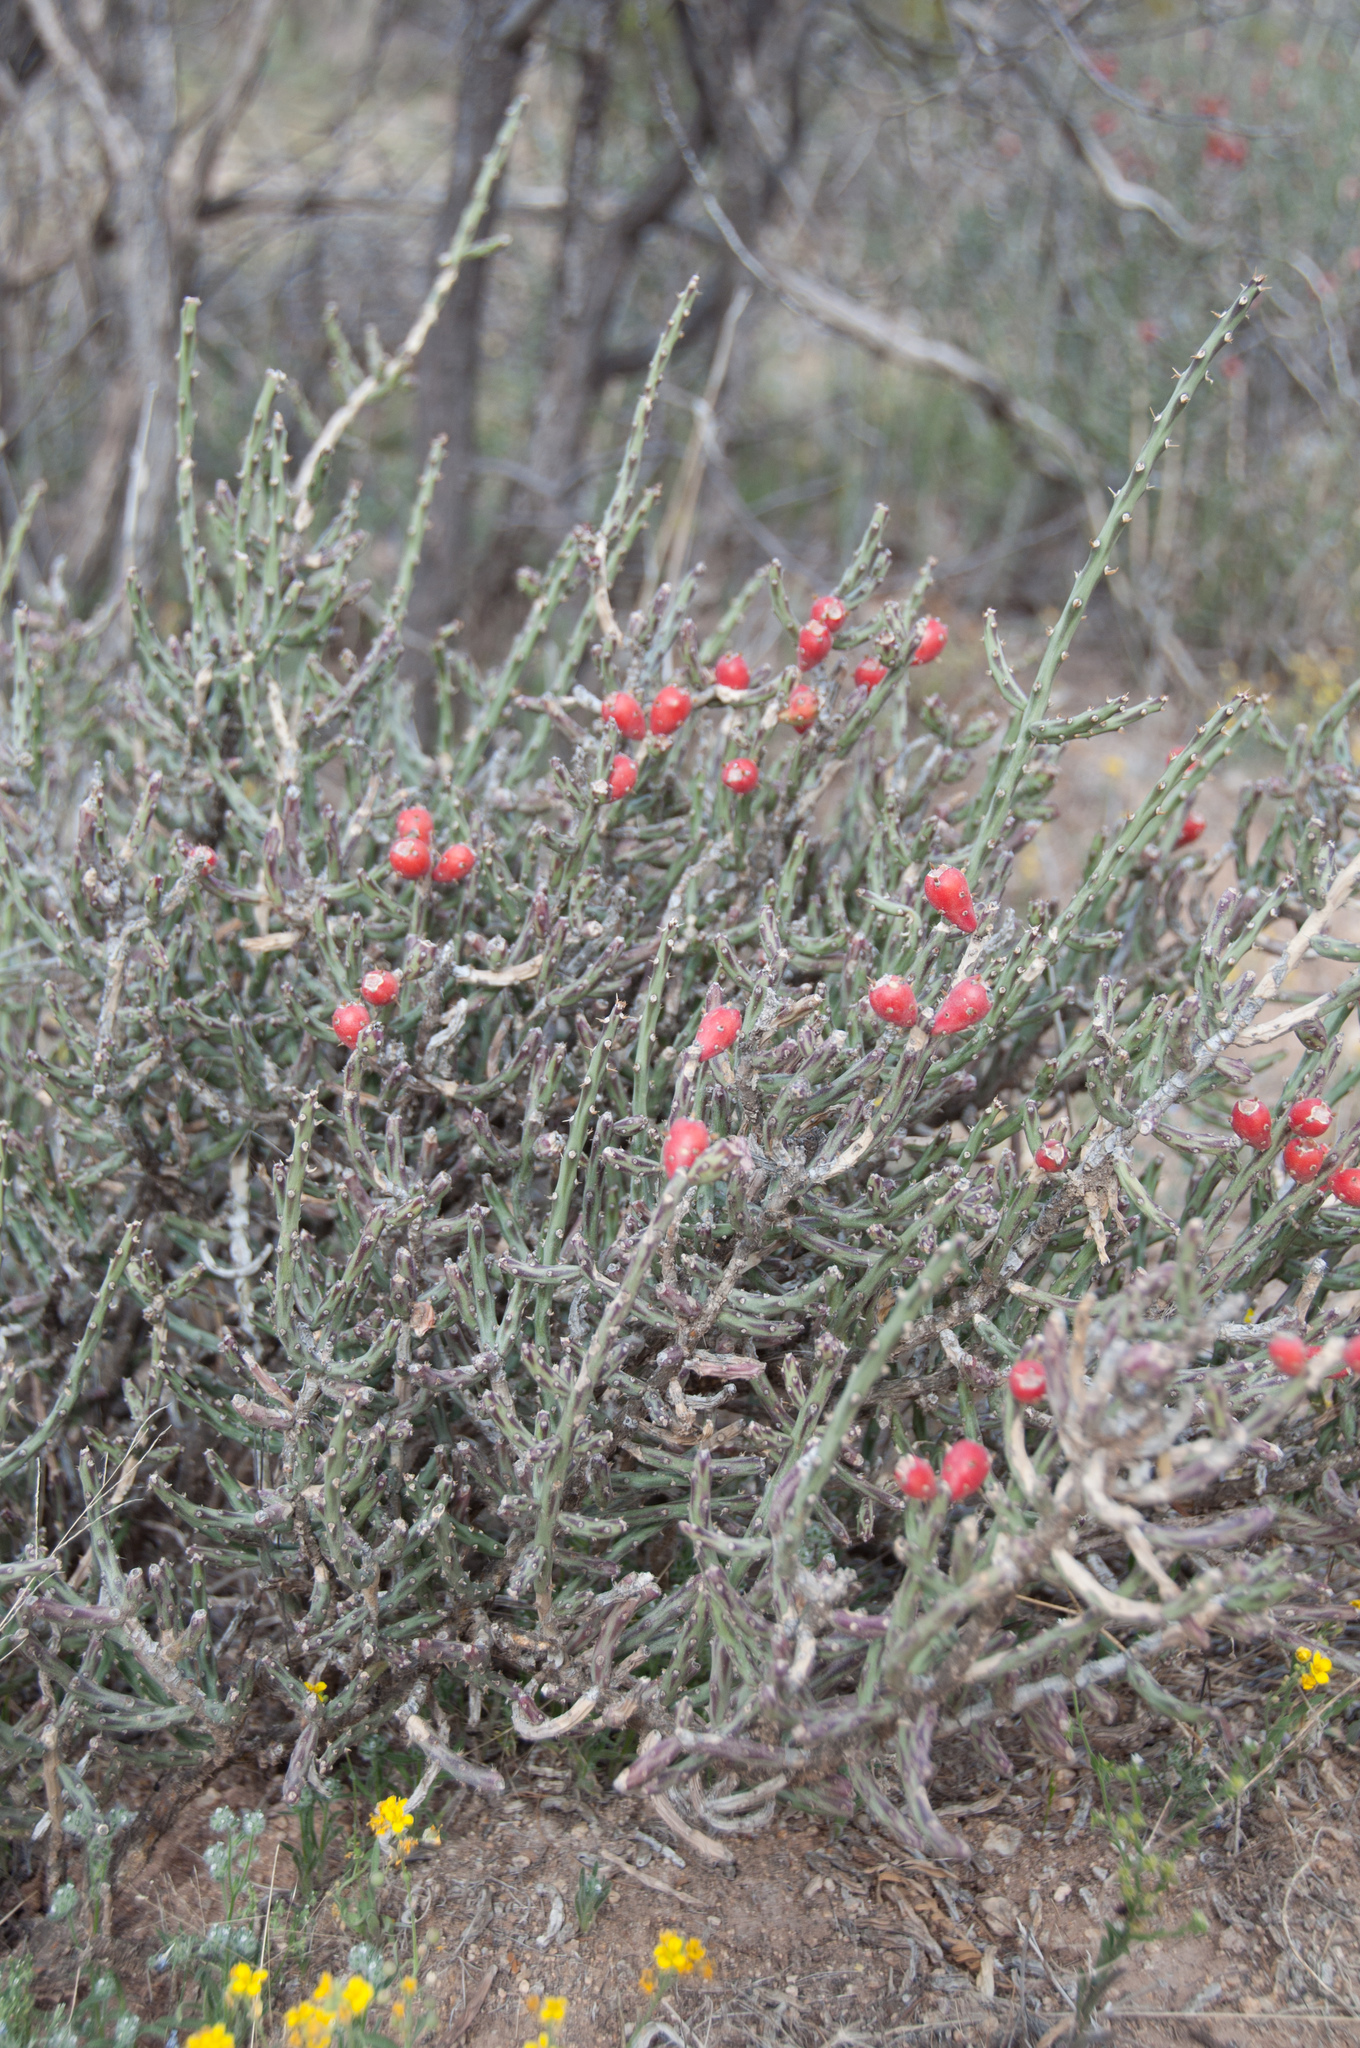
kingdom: Plantae
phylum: Tracheophyta
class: Magnoliopsida
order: Caryophyllales
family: Cactaceae
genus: Cylindropuntia
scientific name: Cylindropuntia leptocaulis
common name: Christmas cactus
